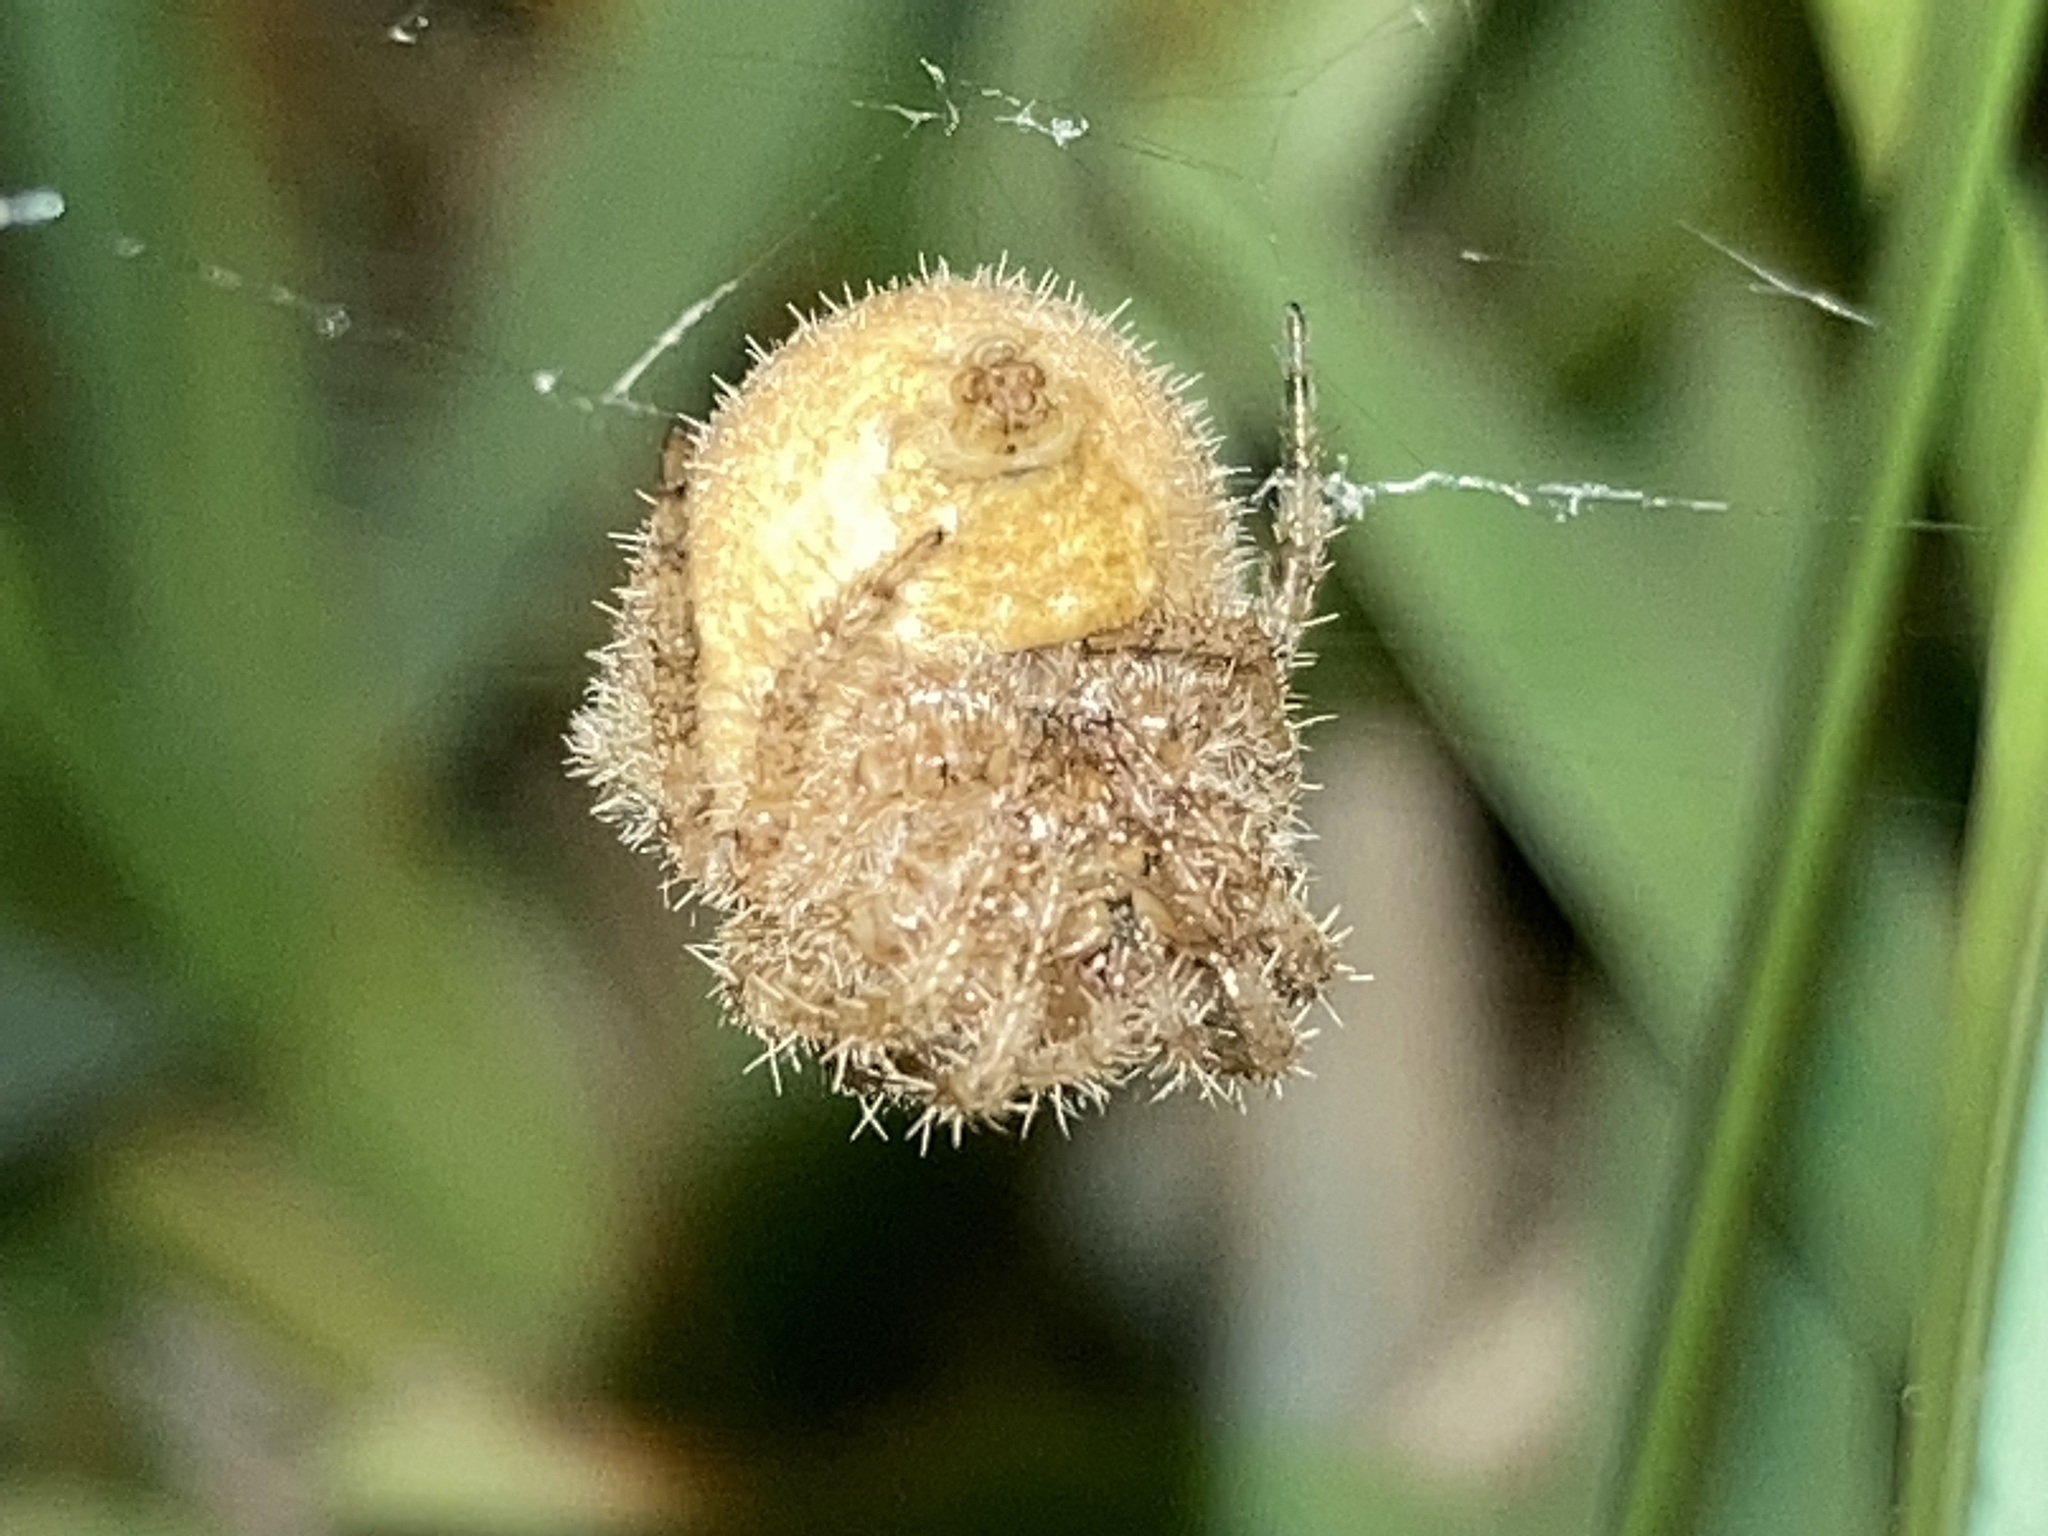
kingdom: Animalia
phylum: Arthropoda
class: Arachnida
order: Araneae
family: Araneidae
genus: Kaira
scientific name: Kaira alba
